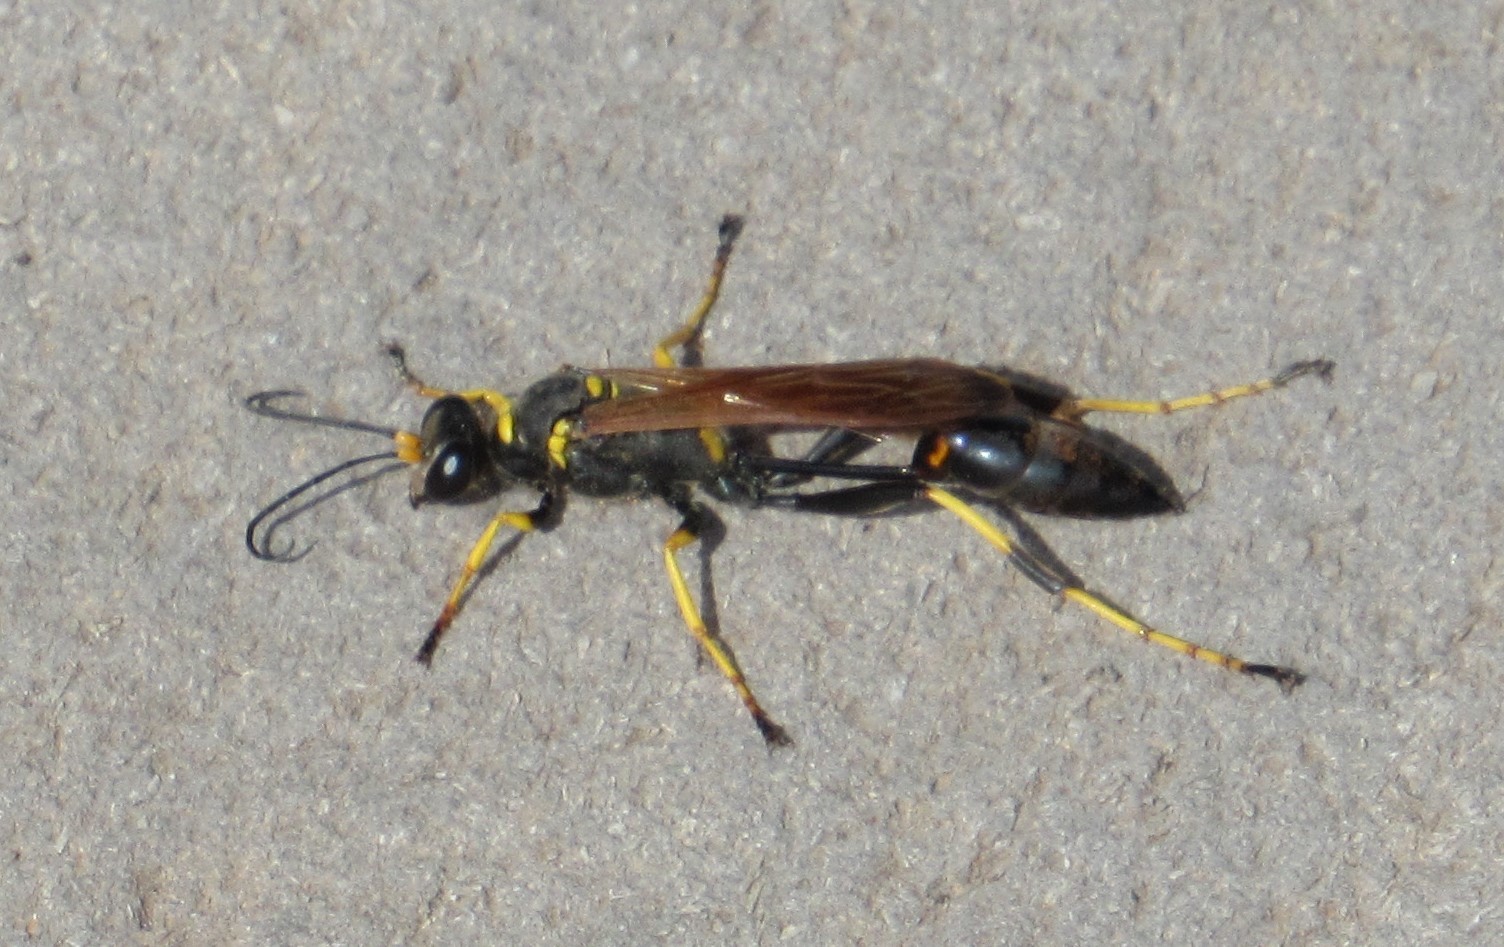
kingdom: Animalia
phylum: Arthropoda
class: Insecta
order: Hymenoptera
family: Sphecidae
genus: Sceliphron
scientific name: Sceliphron caementarium
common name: Mud dauber
